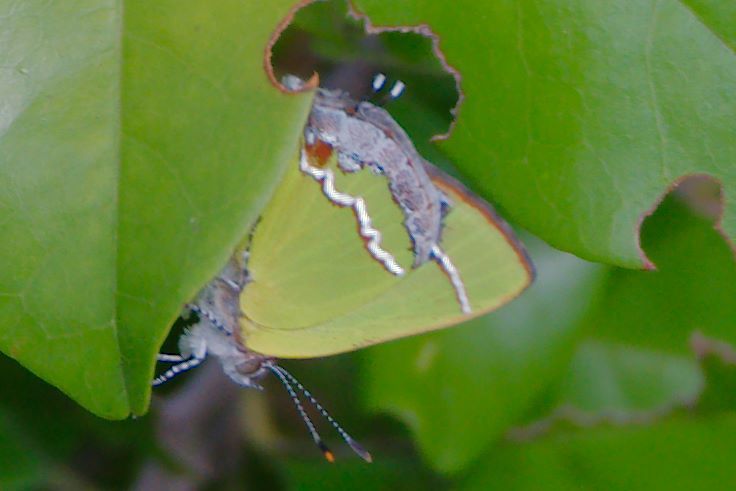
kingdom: Animalia
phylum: Arthropoda
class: Insecta
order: Lepidoptera
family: Lycaenidae
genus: Chlorostrymon
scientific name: Chlorostrymon simaethis
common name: Silver-banded hairstreak
